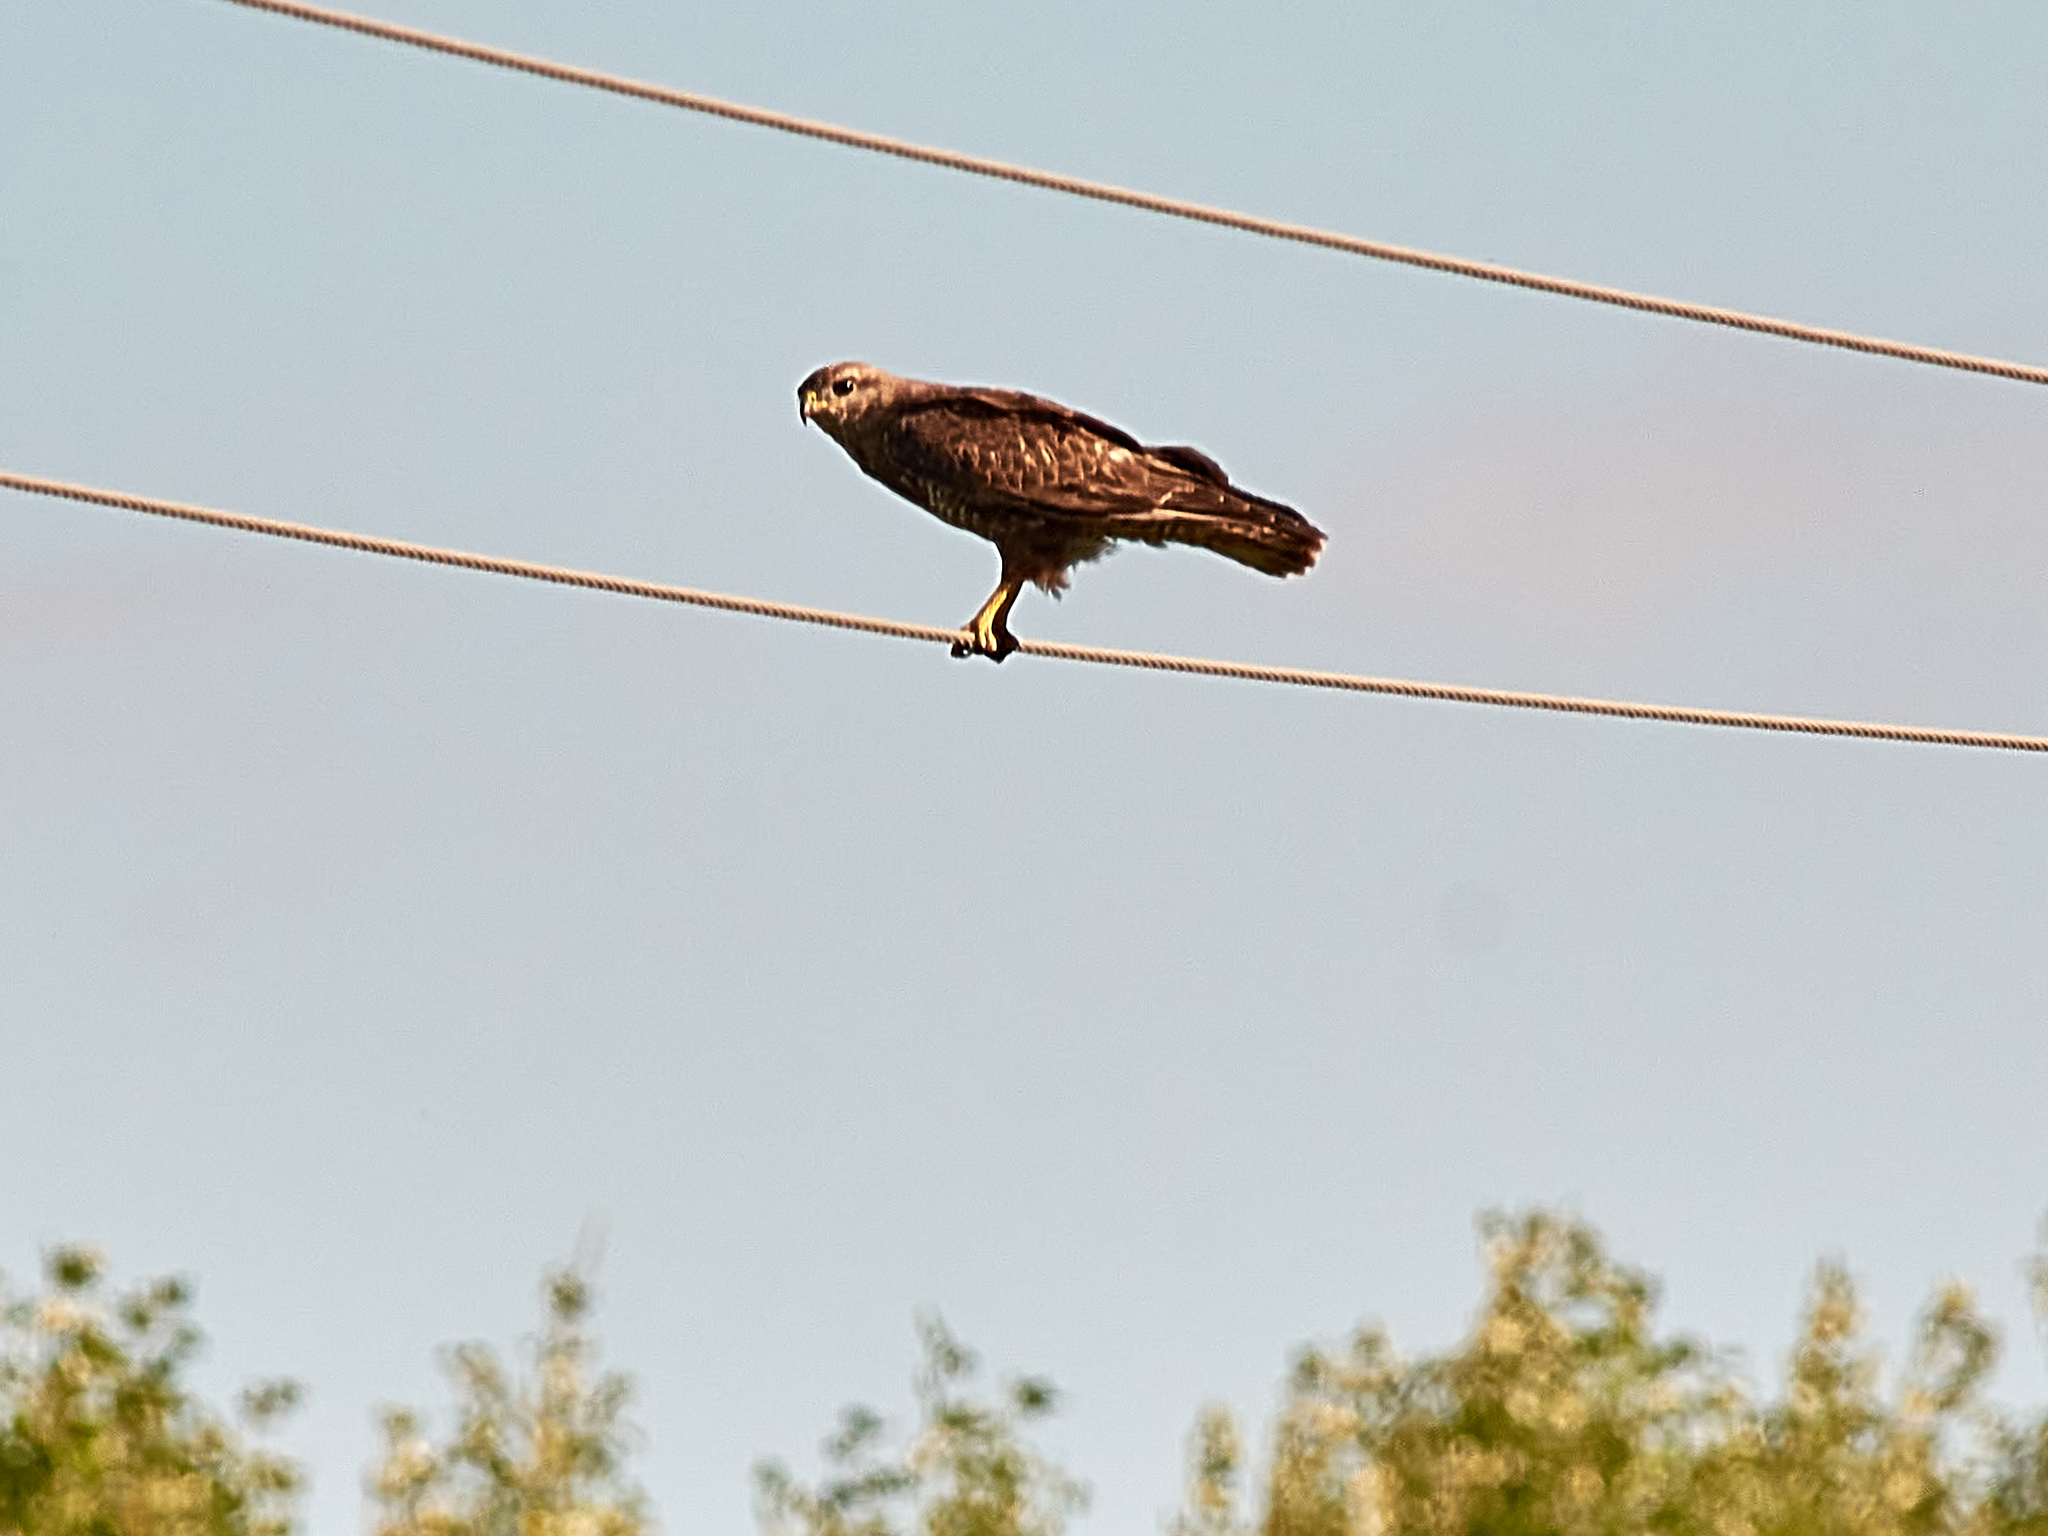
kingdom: Animalia
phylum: Chordata
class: Aves
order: Accipitriformes
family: Accipitridae
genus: Buteo
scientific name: Buteo buteo
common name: Common buzzard
